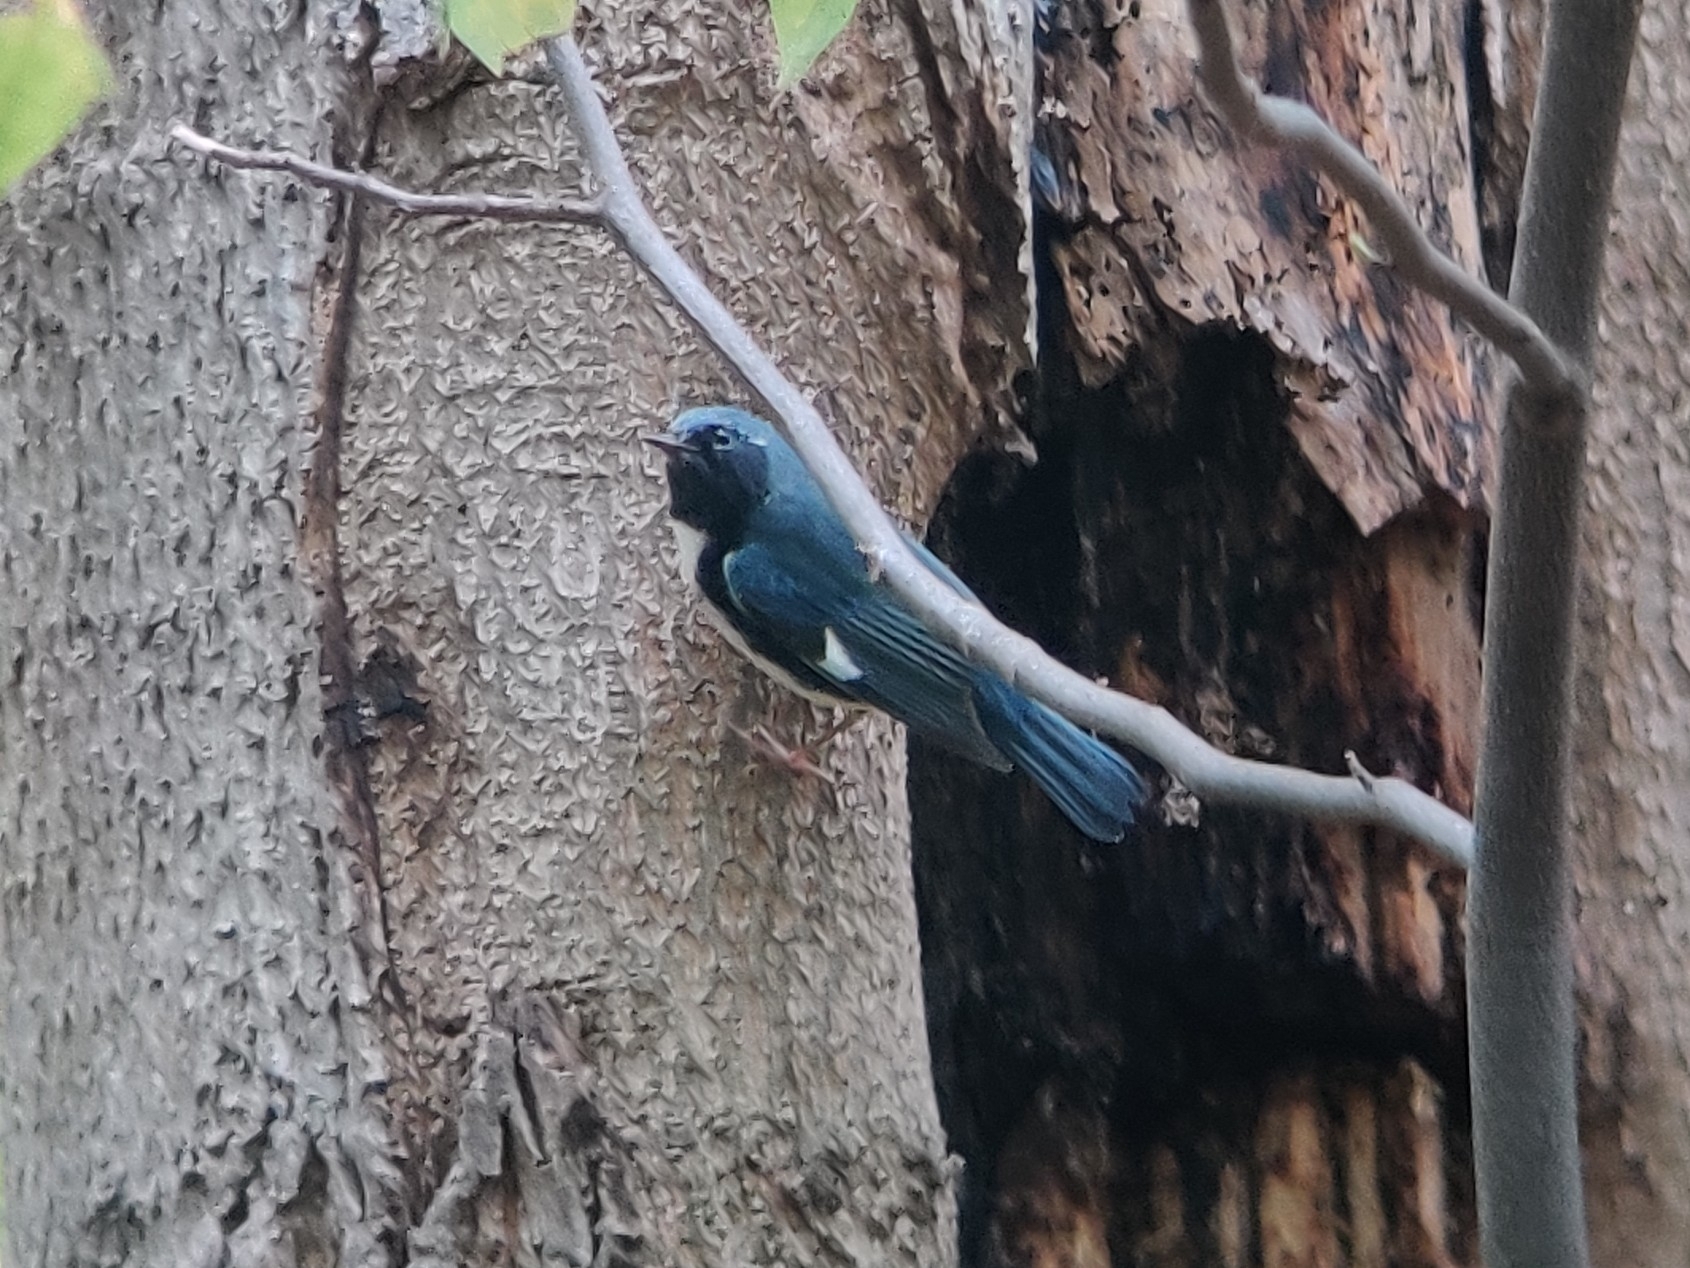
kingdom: Animalia
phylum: Chordata
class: Aves
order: Passeriformes
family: Parulidae
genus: Setophaga
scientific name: Setophaga caerulescens
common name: Black-throated blue warbler
